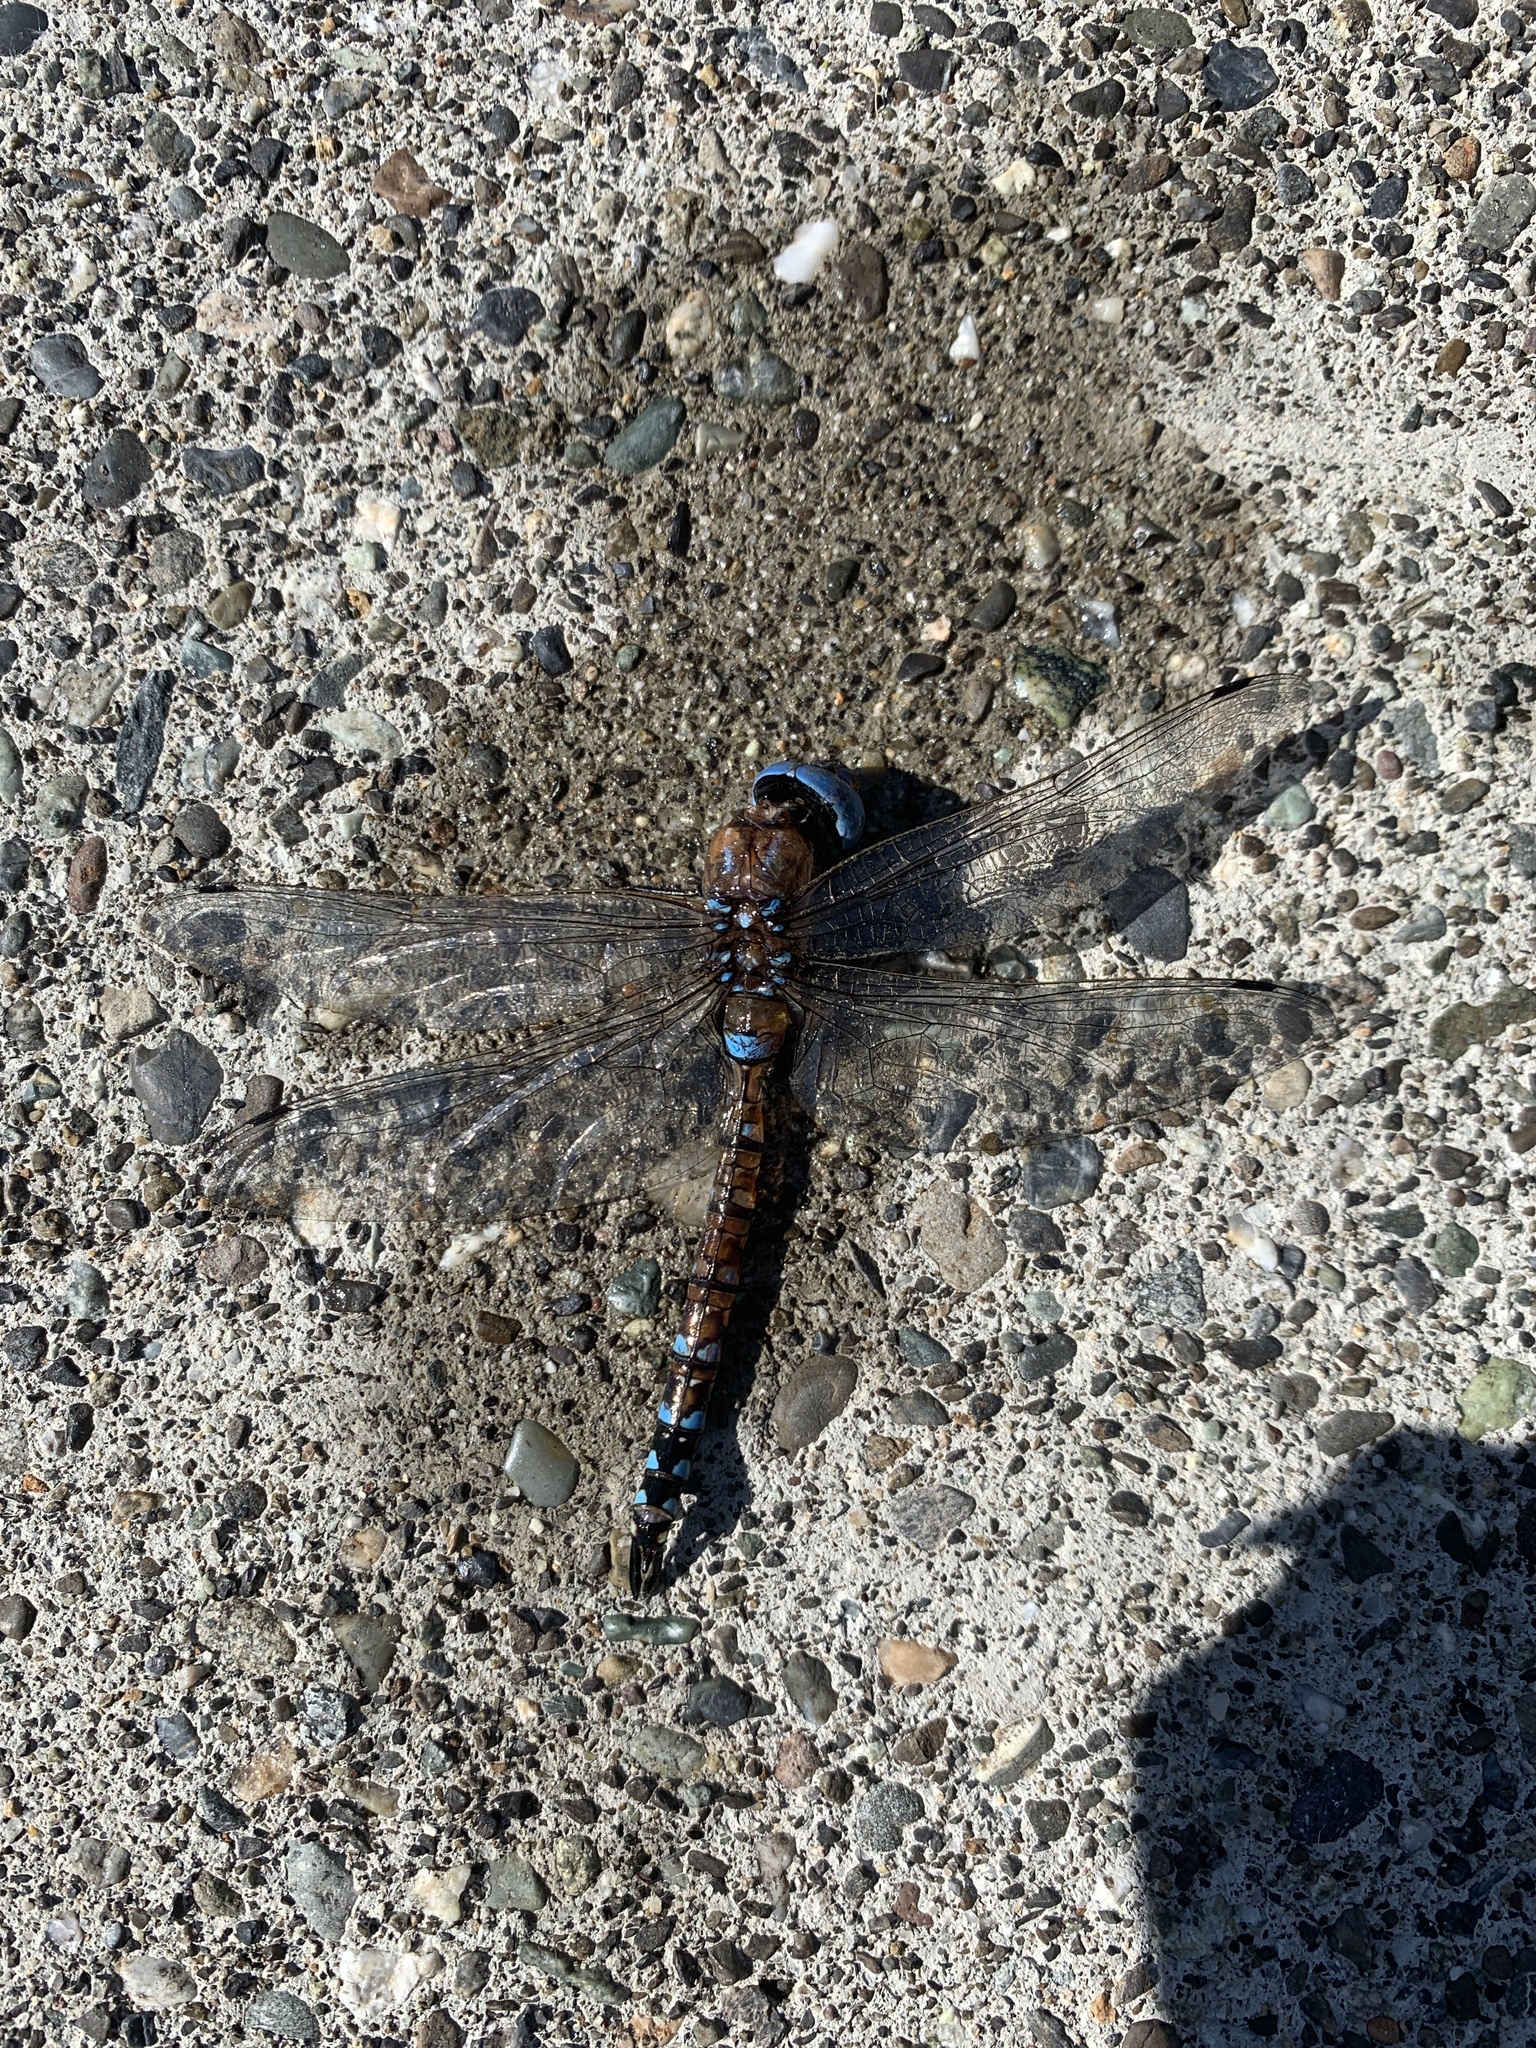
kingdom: Animalia
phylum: Arthropoda
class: Insecta
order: Odonata
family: Aeshnidae
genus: Rhionaeschna
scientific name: Rhionaeschna multicolor
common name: Blue-eyed darner
